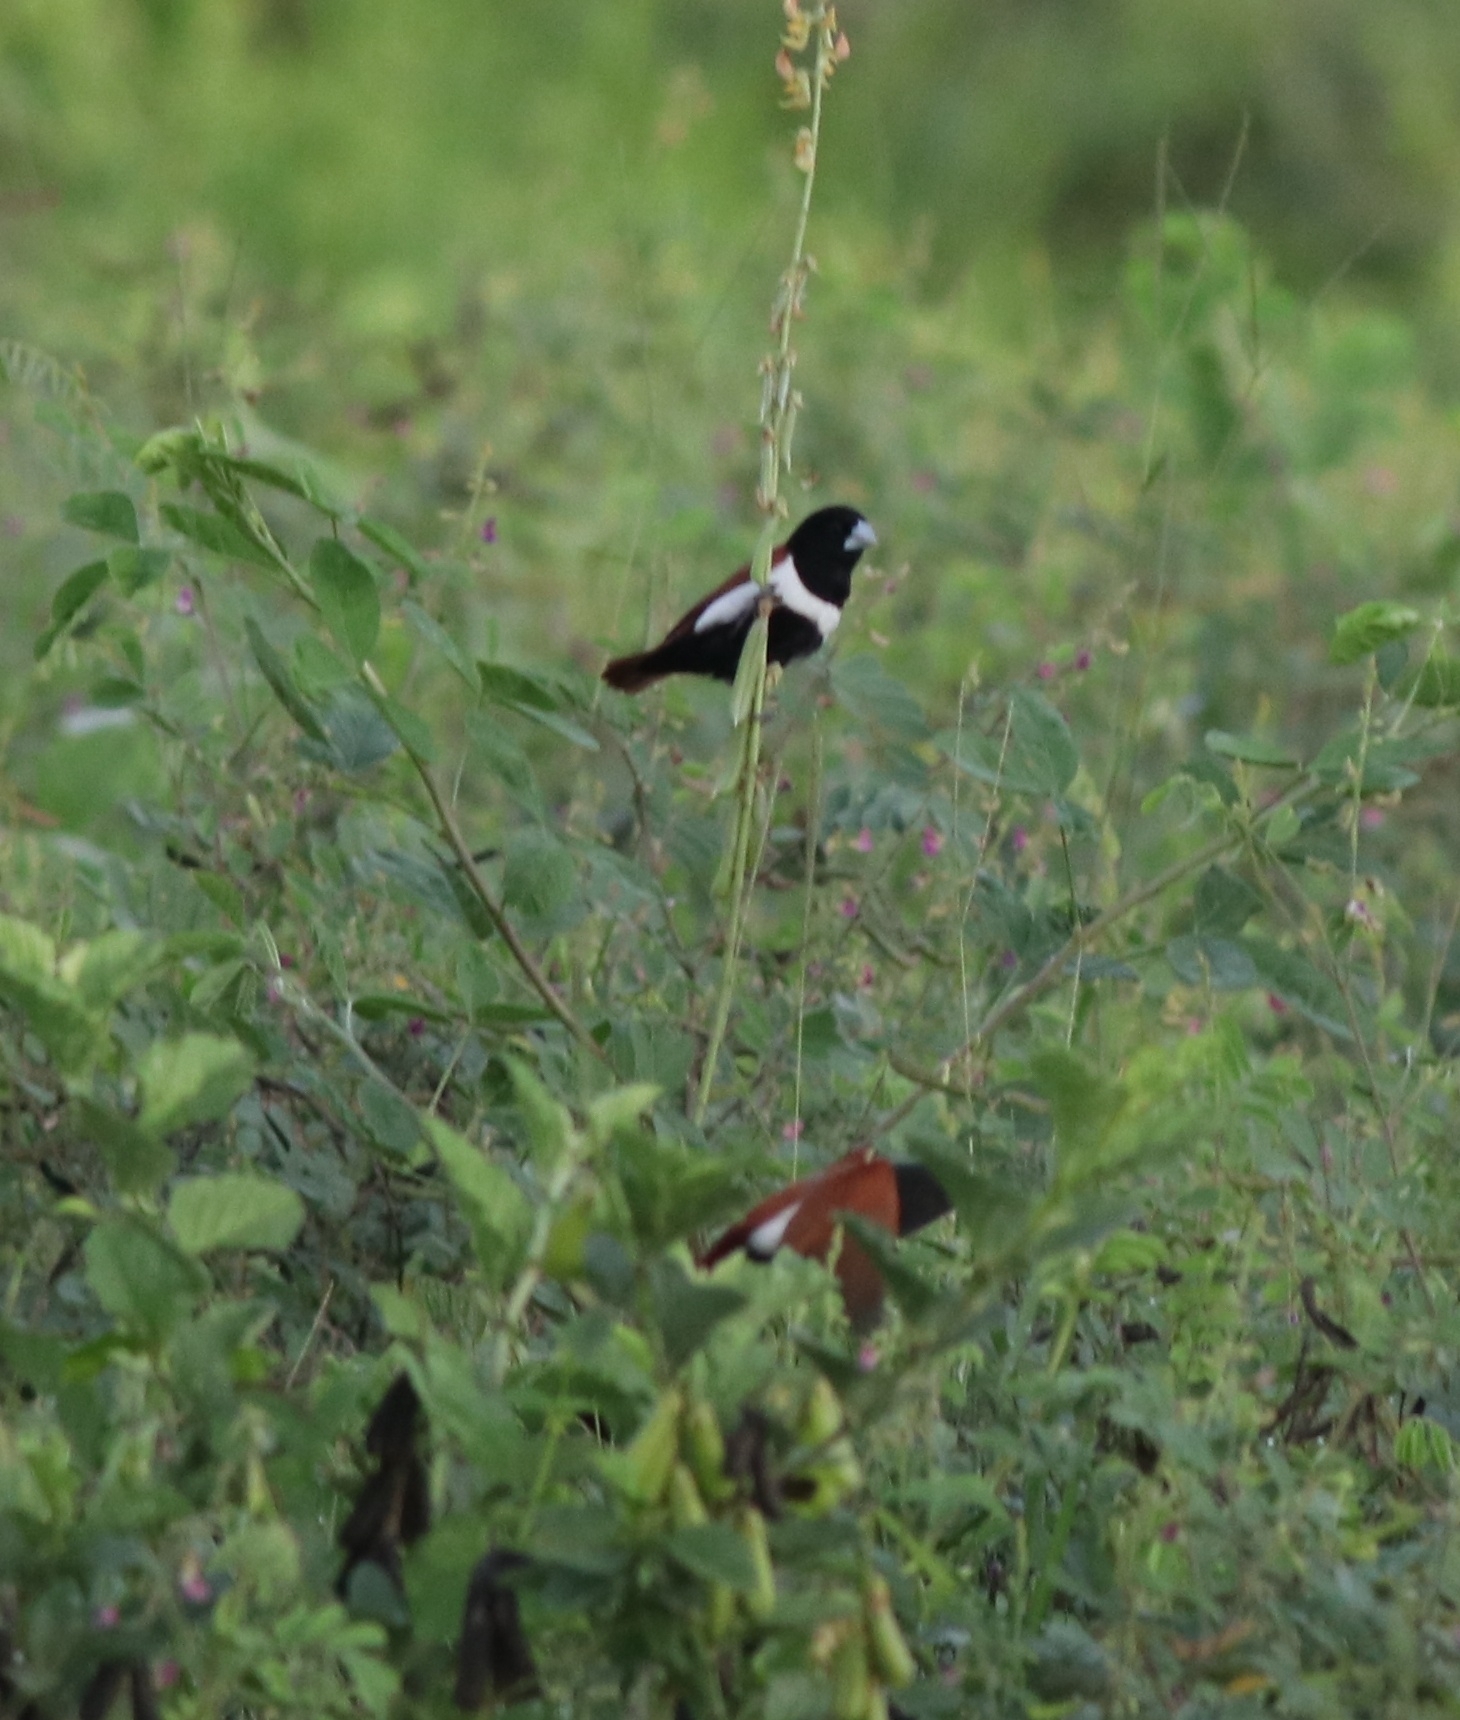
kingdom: Animalia
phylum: Chordata
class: Aves
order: Passeriformes
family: Estrildidae
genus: Lonchura
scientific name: Lonchura malacca
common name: Tricolored munia
